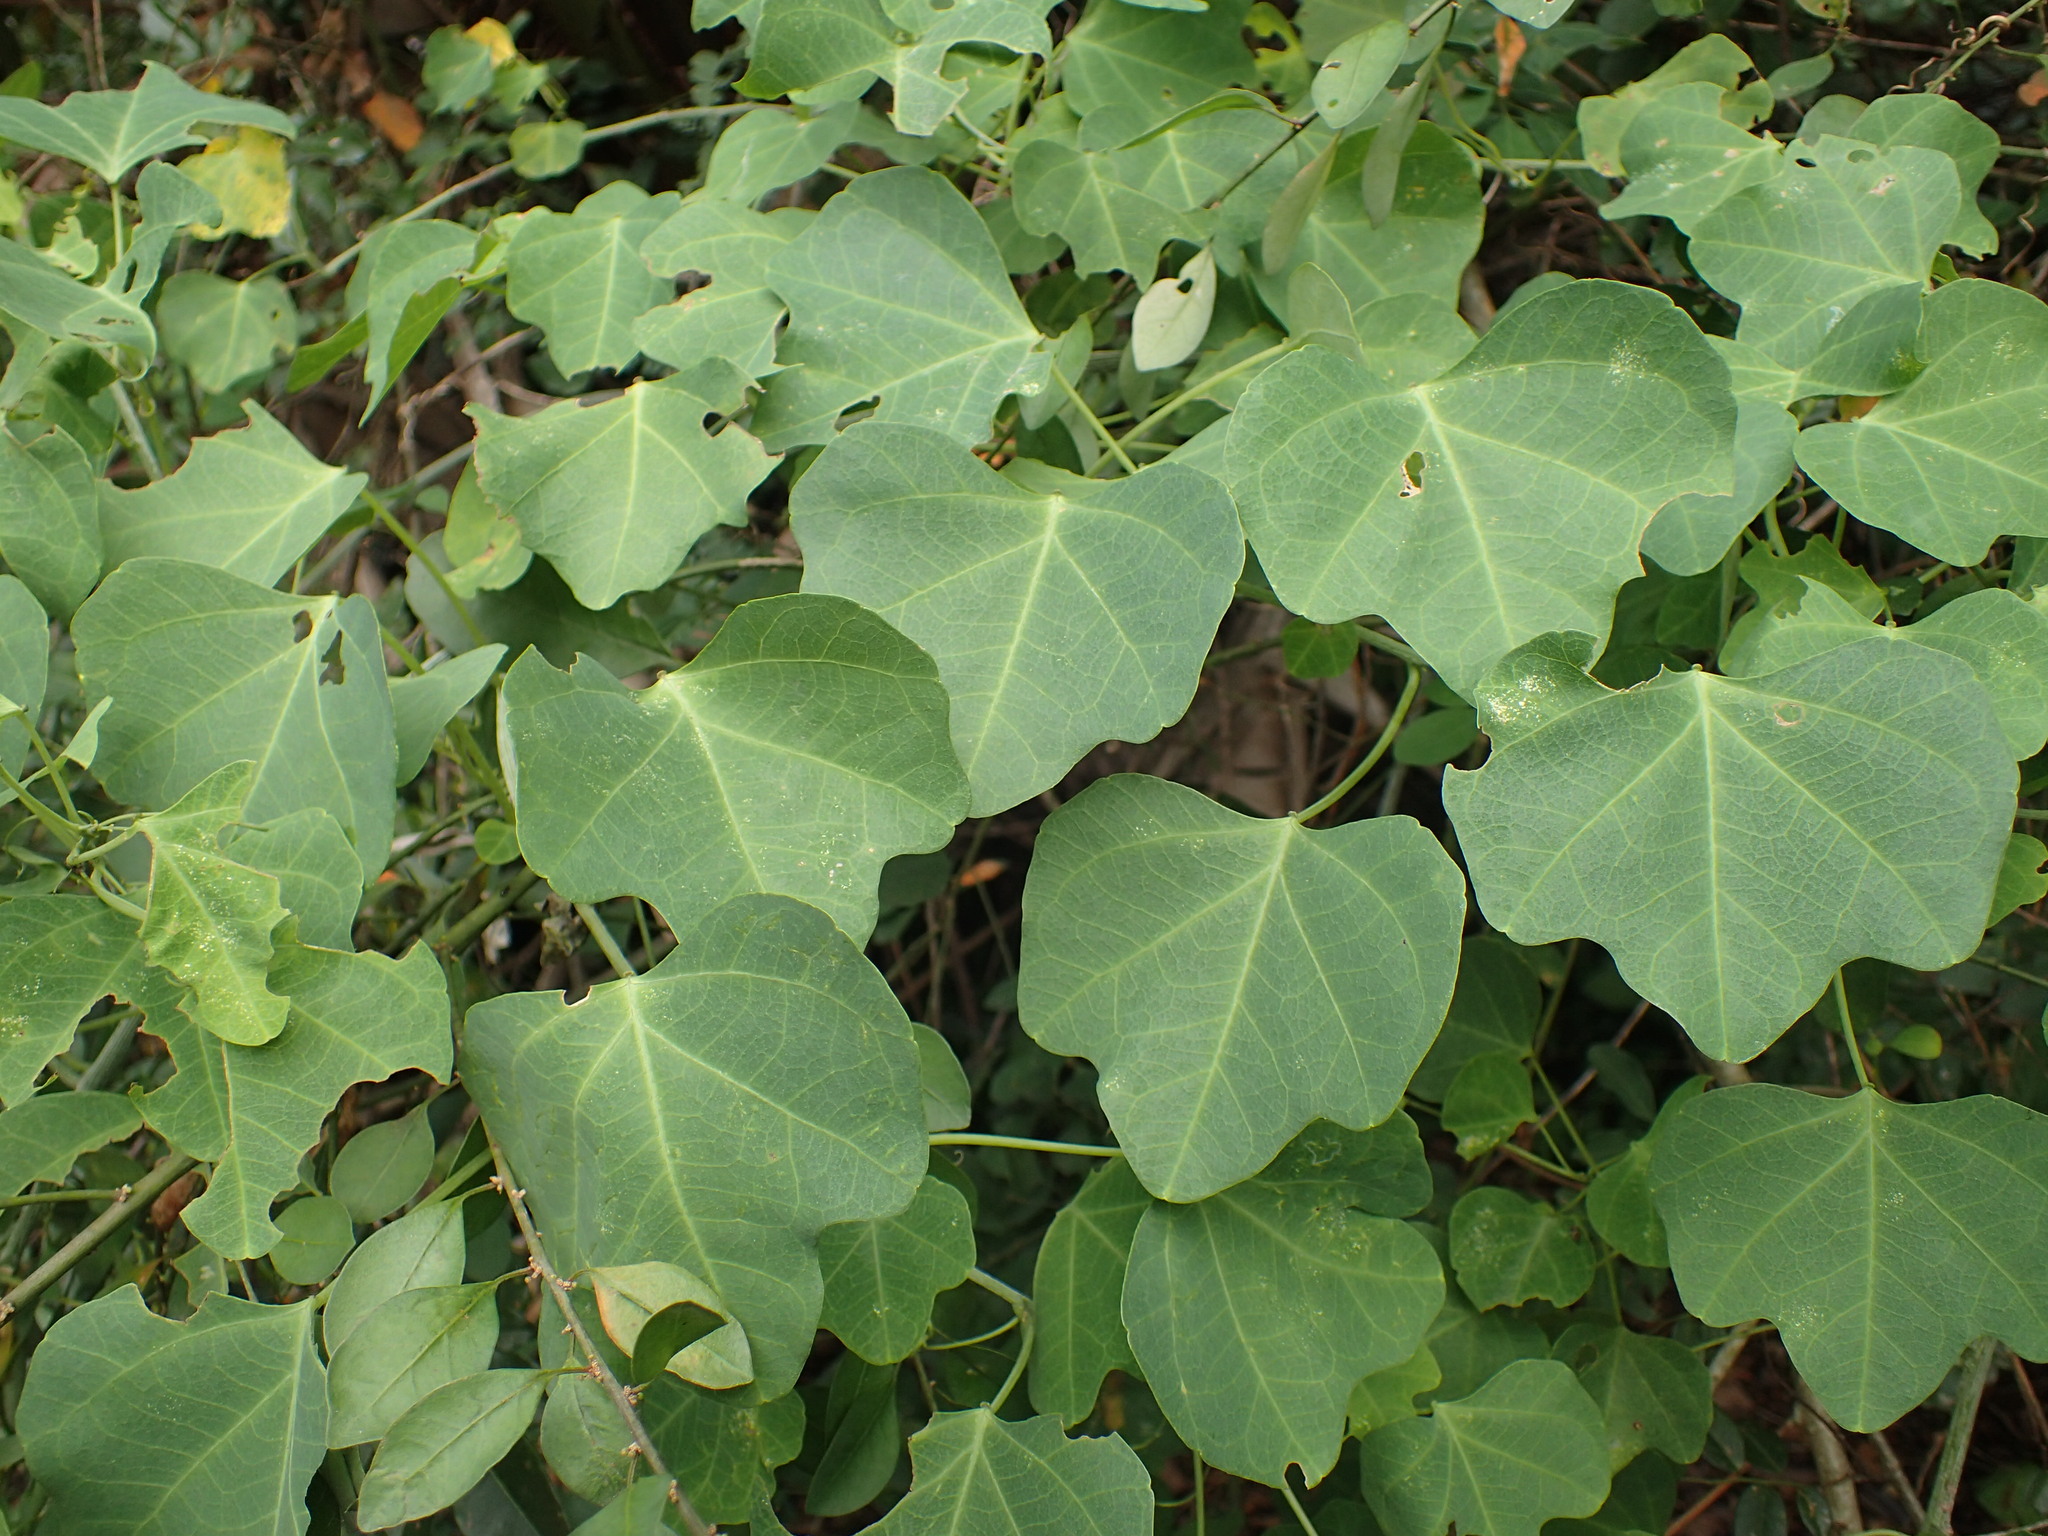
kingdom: Plantae
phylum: Tracheophyta
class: Magnoliopsida
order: Malpighiales
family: Passifloraceae
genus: Adenia
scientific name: Adenia gummifera
